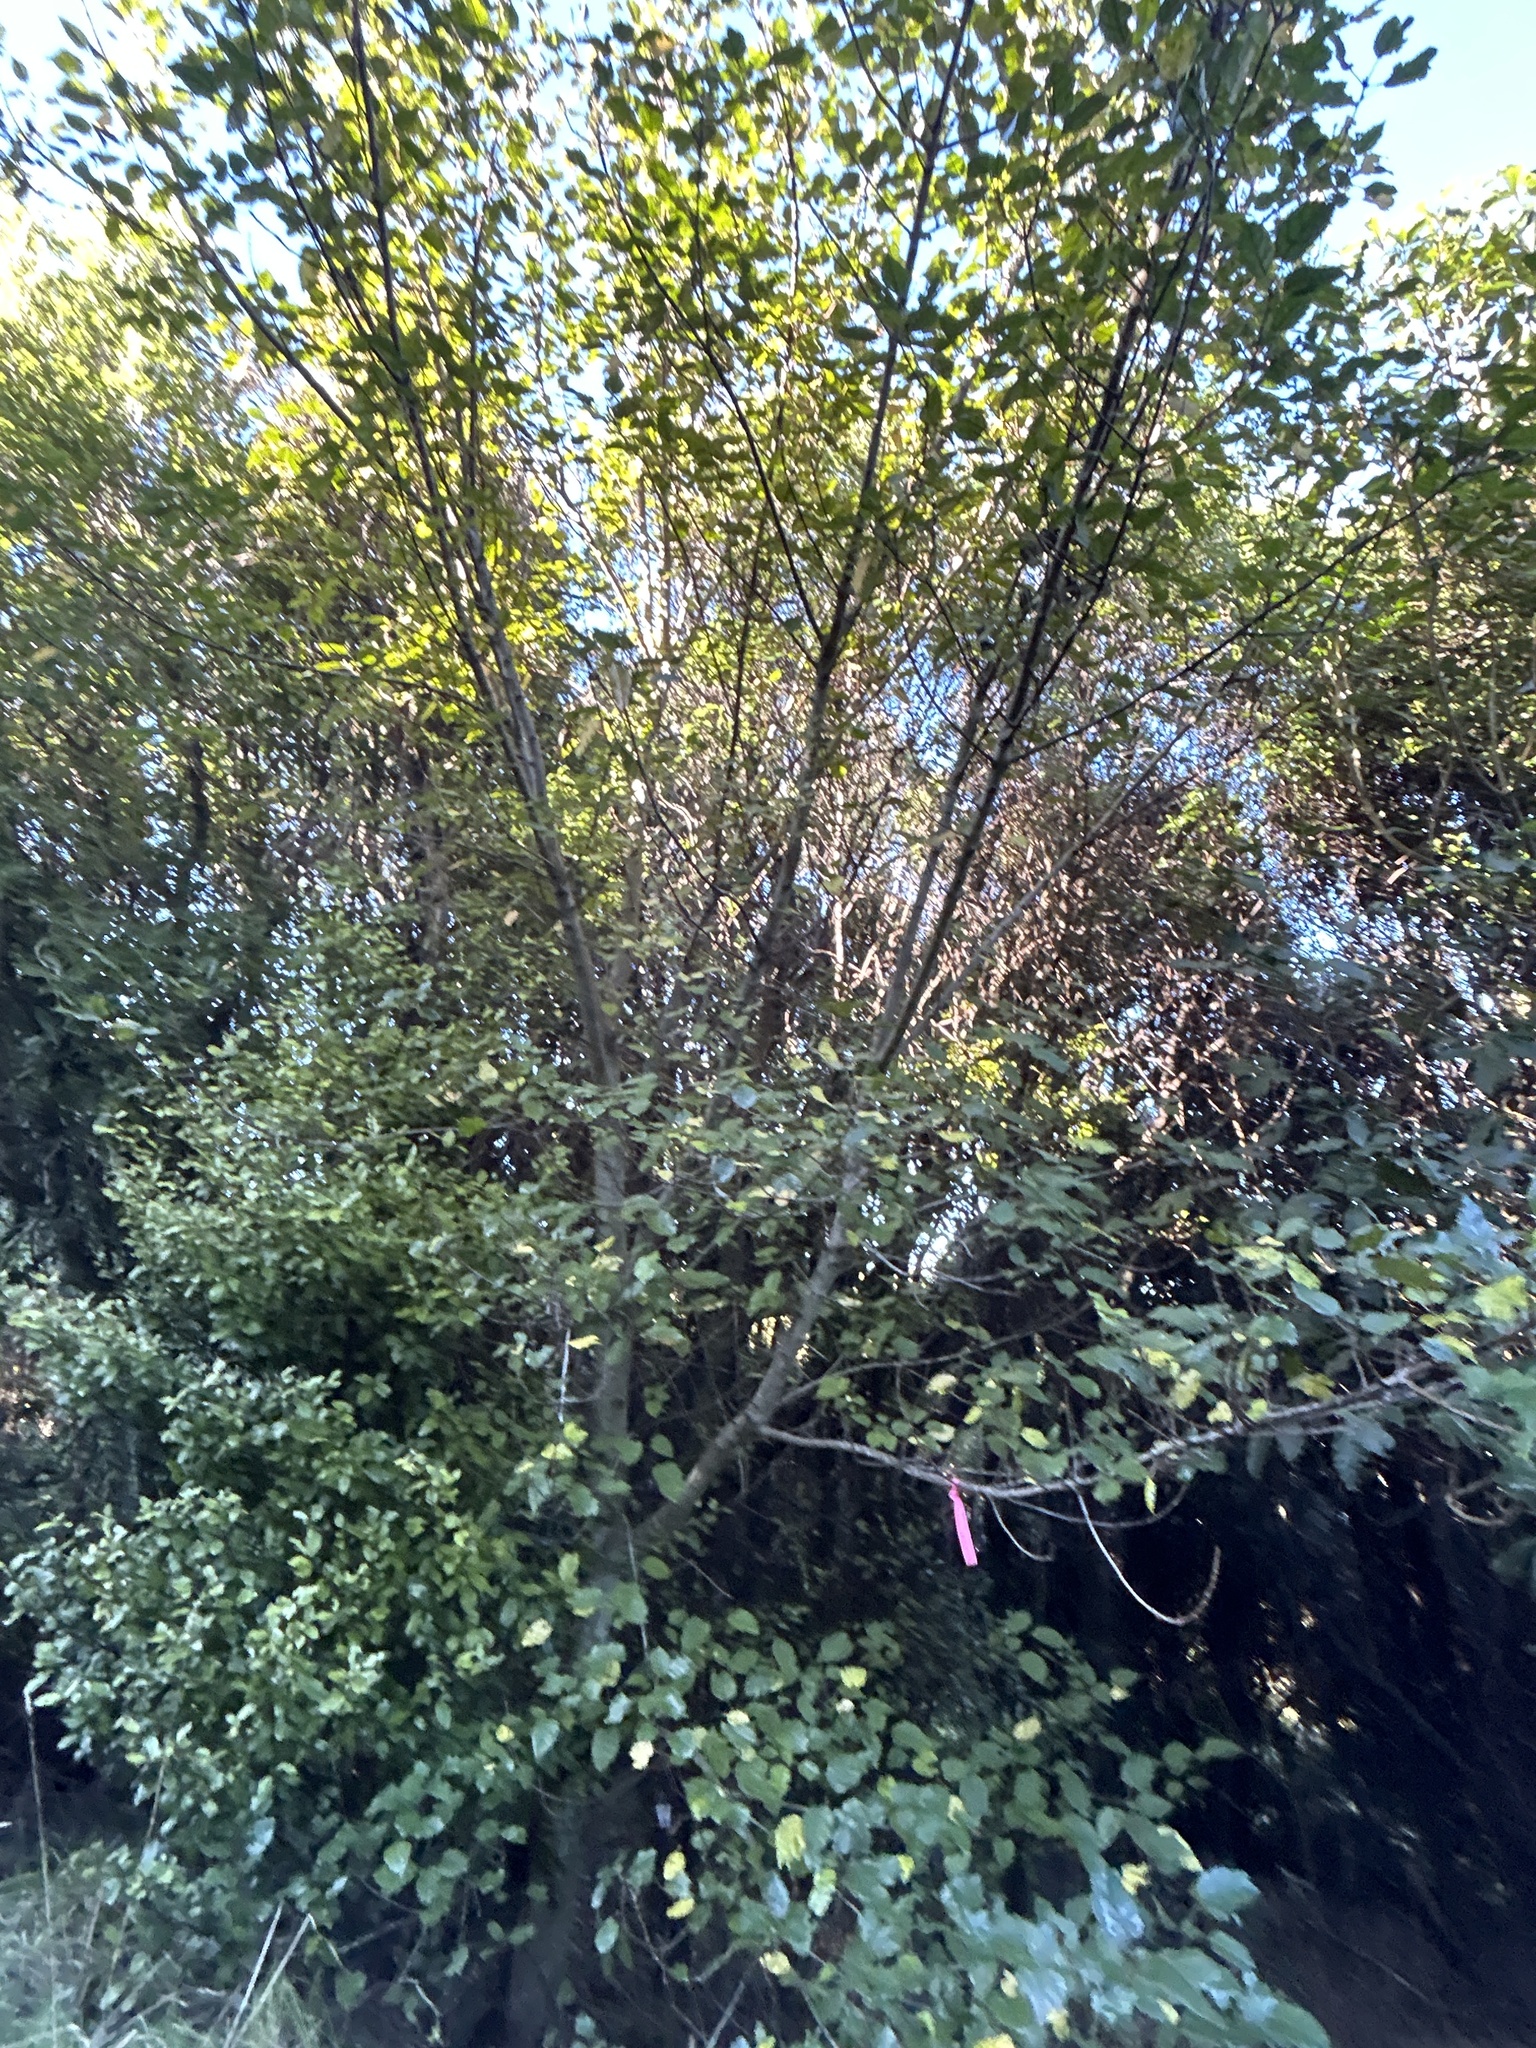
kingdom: Plantae
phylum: Tracheophyta
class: Magnoliopsida
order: Oxalidales
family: Elaeocarpaceae
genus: Aristotelia
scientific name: Aristotelia serrata
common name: New zealand wineberry
